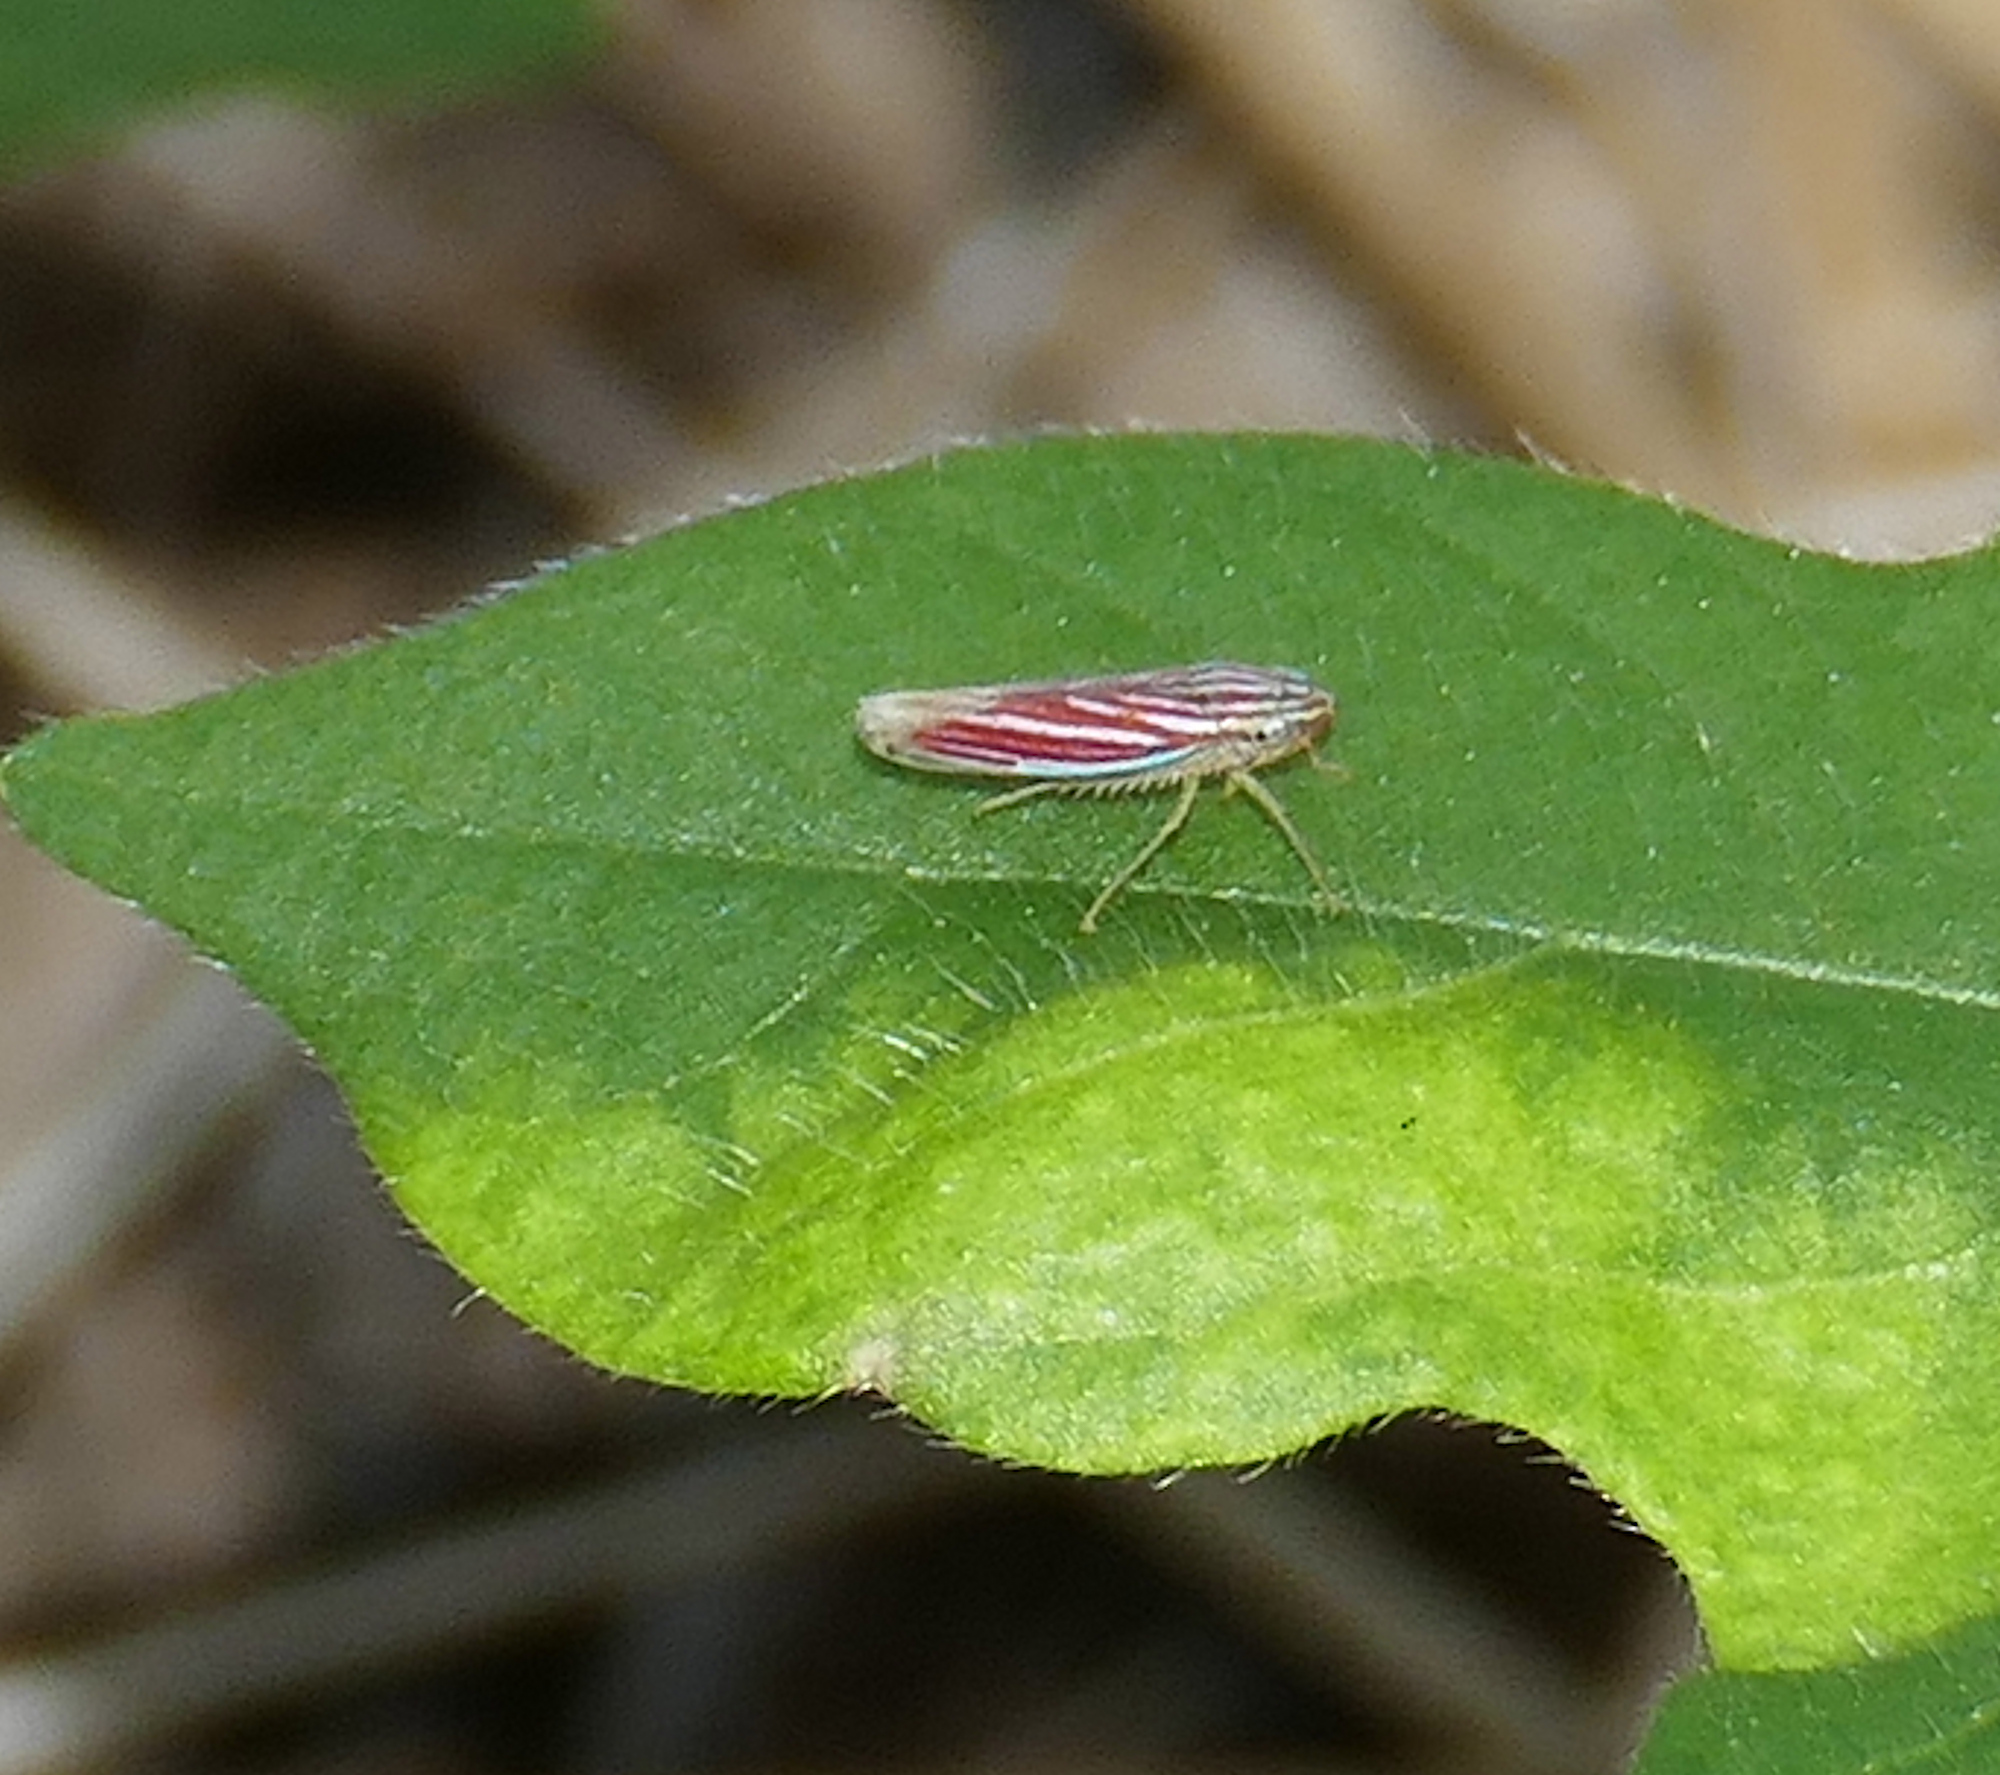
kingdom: Animalia
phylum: Arthropoda
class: Insecta
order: Hemiptera
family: Cicadellidae
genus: Sibovia
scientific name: Sibovia compta
